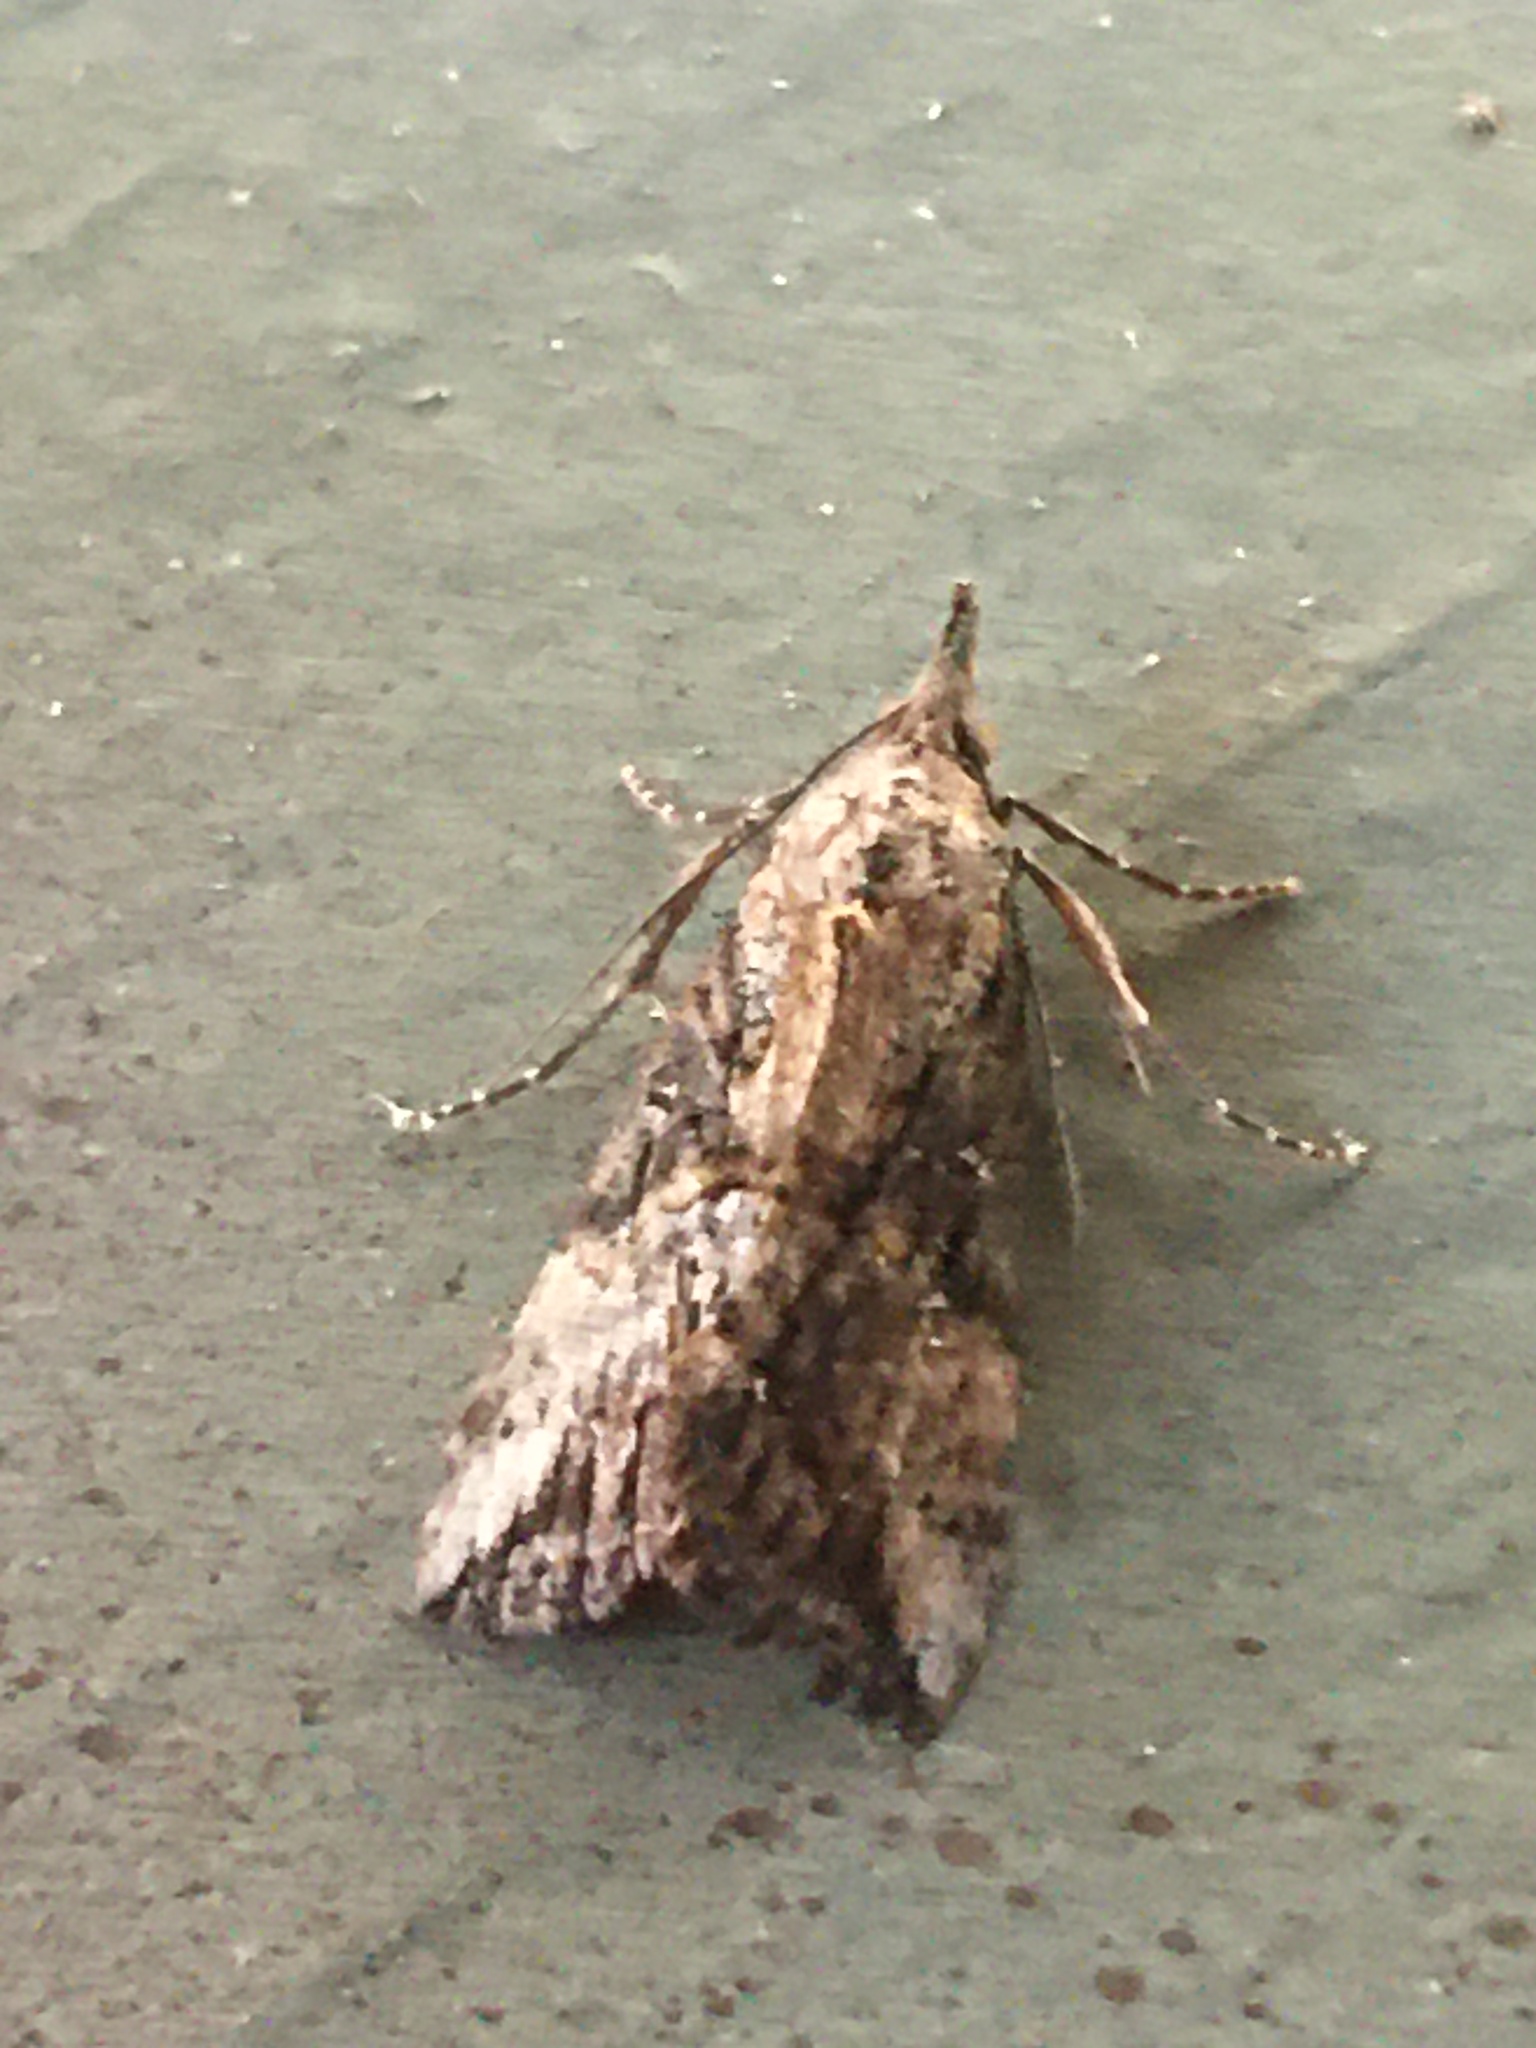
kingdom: Animalia
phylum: Arthropoda
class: Insecta
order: Lepidoptera
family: Erebidae
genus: Hypena
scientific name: Hypena scabra
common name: Green cloverworm
